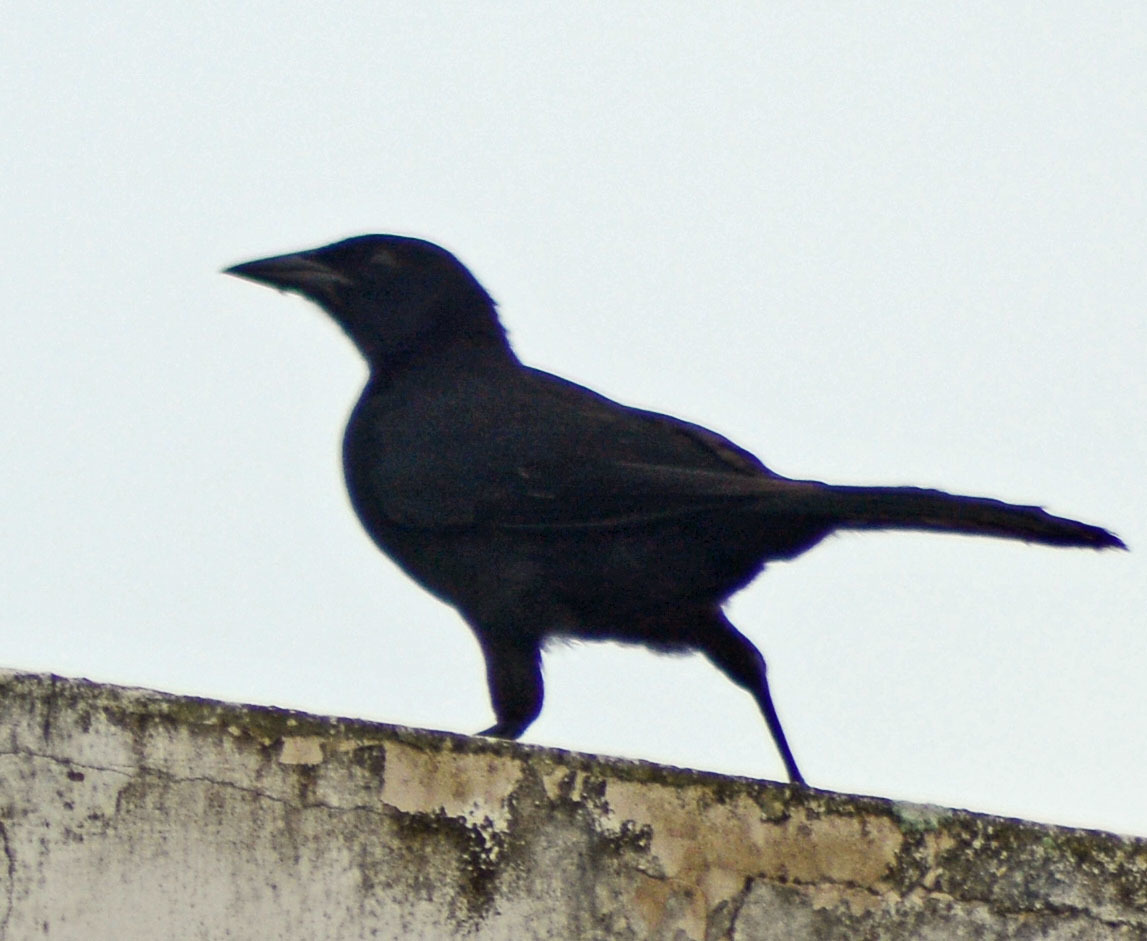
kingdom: Animalia
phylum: Chordata
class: Aves
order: Passeriformes
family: Icteridae
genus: Dives
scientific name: Dives dives
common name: Melodious blackbird
